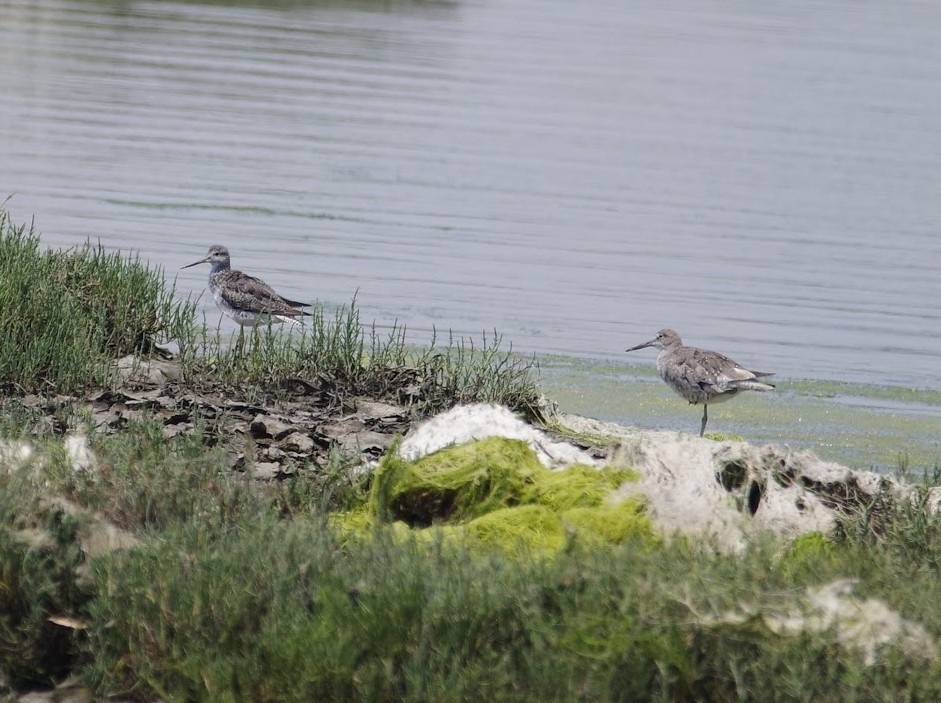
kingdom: Animalia
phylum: Chordata
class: Aves
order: Charadriiformes
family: Scolopacidae
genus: Tringa
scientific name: Tringa semipalmata
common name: Willet
